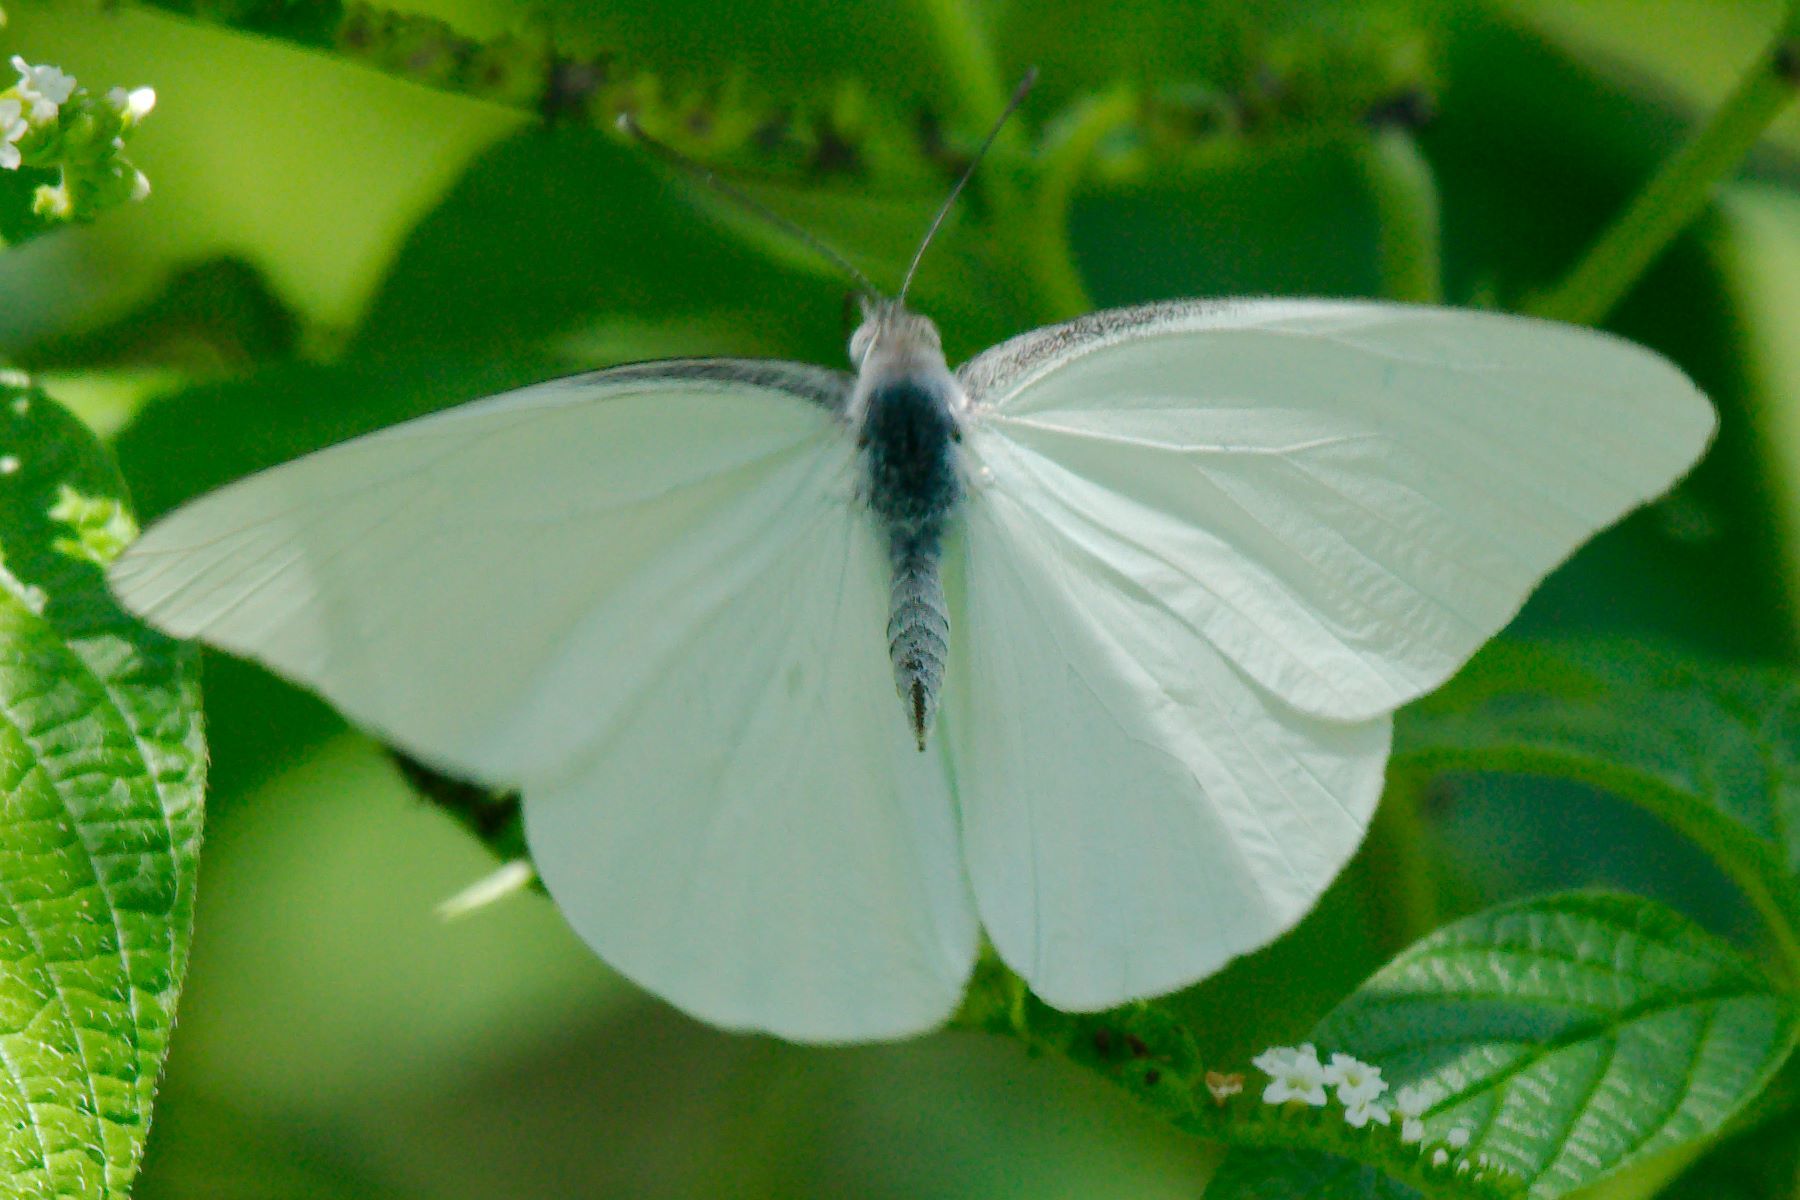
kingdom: Animalia
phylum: Arthropoda
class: Insecta
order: Lepidoptera
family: Pieridae
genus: Glutophrissa
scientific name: Glutophrissa drusilla
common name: Florida white
